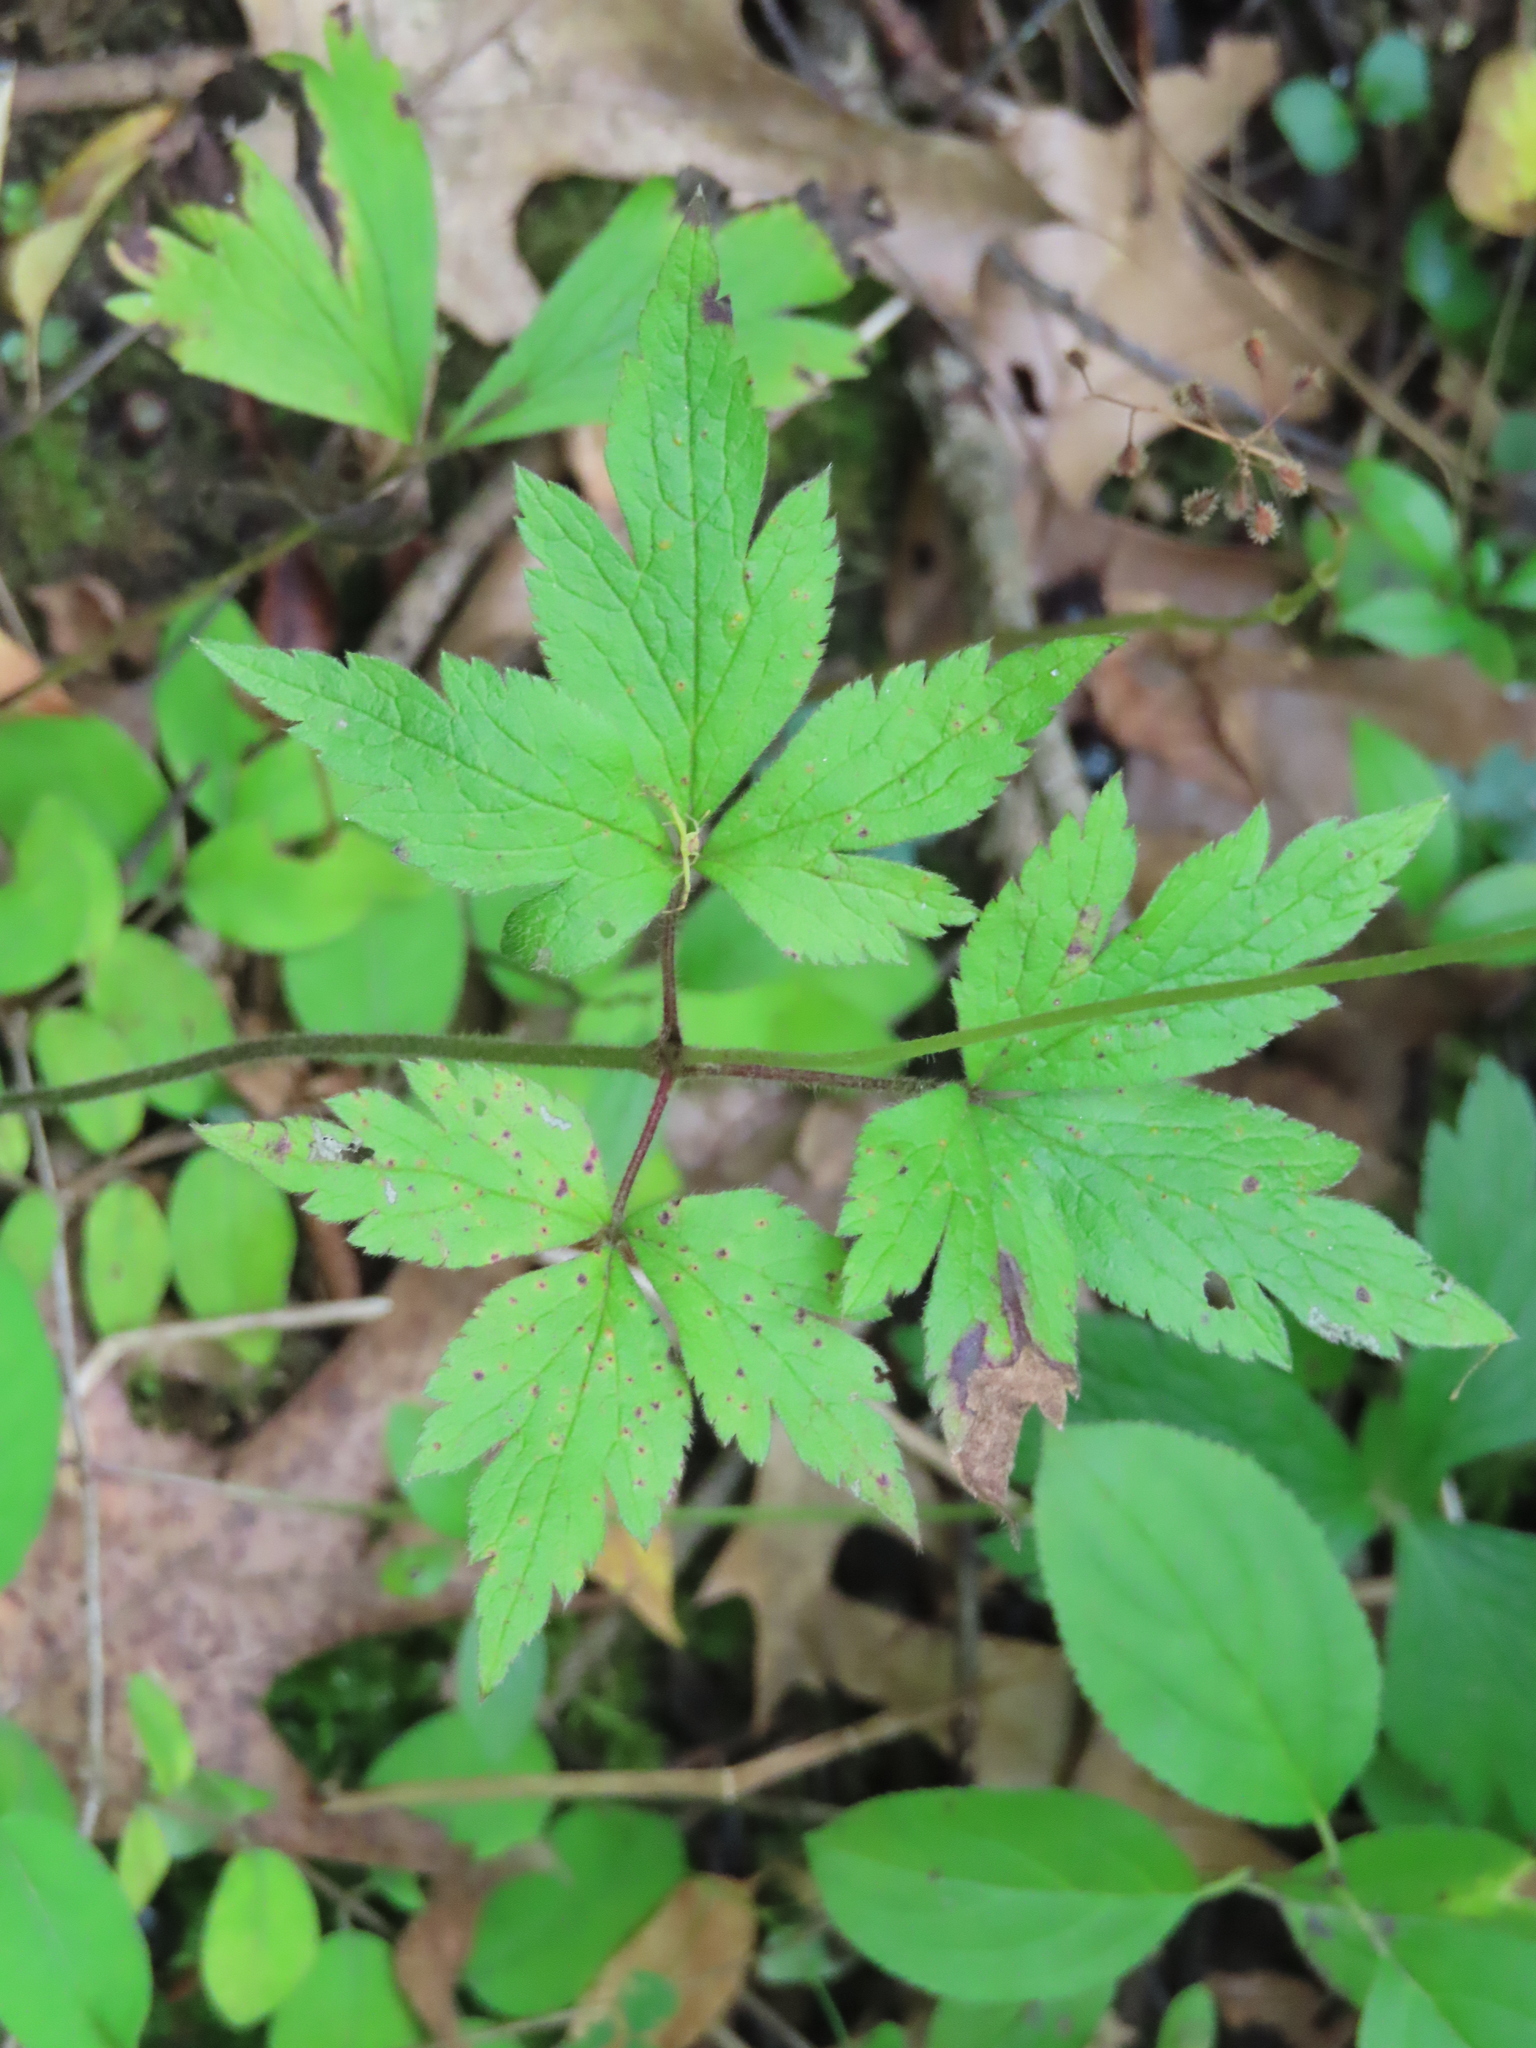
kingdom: Plantae
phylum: Tracheophyta
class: Magnoliopsida
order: Ranunculales
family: Ranunculaceae
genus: Anemone
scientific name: Anemone virginiana
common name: Tall anemone
